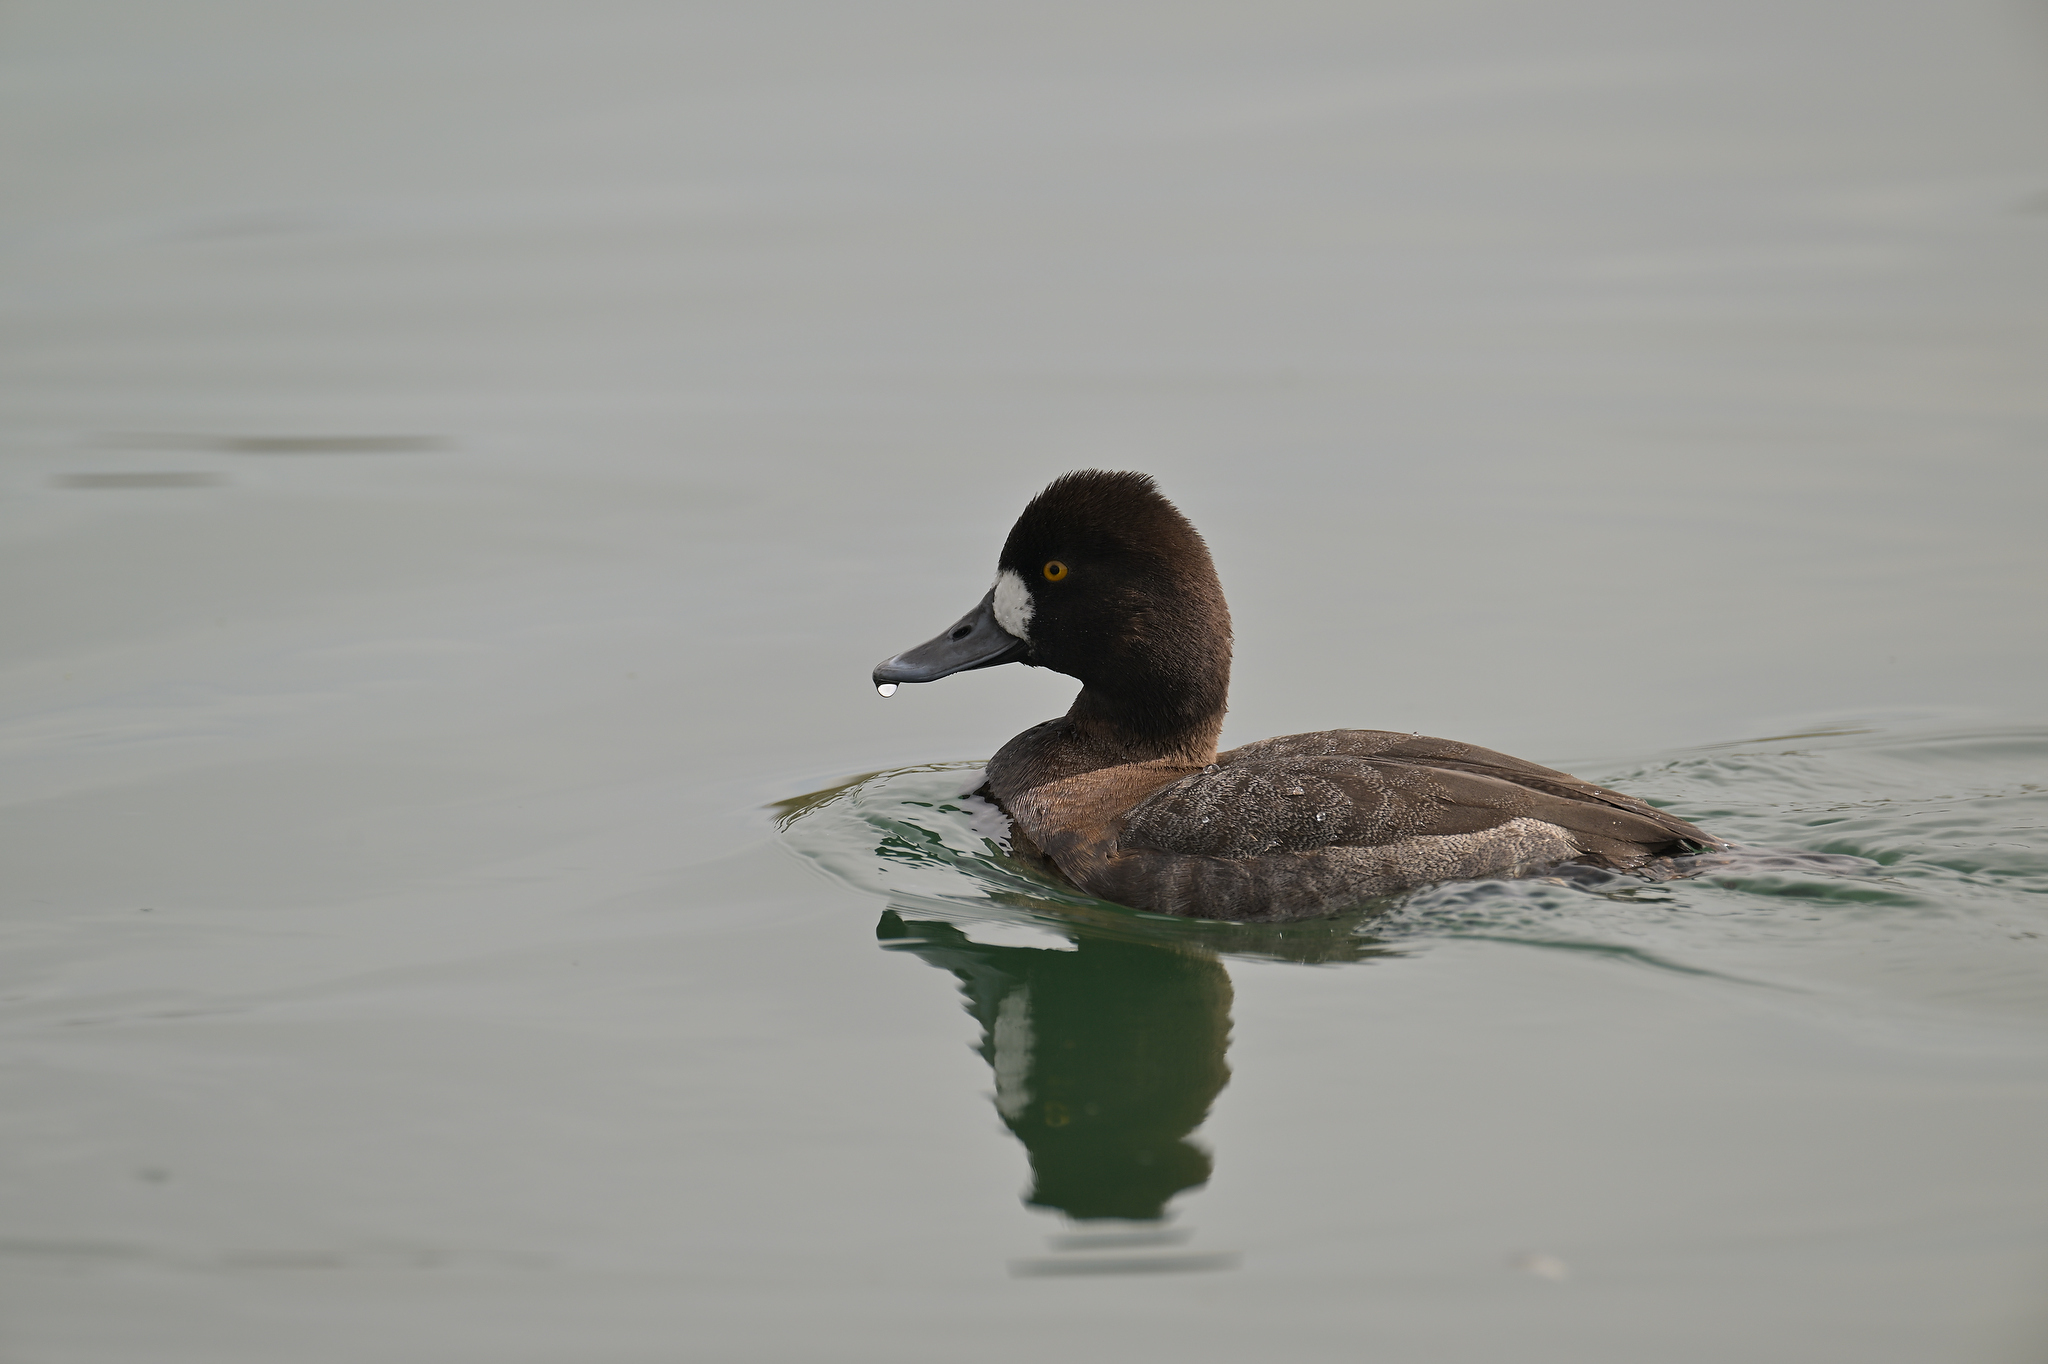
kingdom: Animalia
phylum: Chordata
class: Aves
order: Anseriformes
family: Anatidae
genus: Aythya
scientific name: Aythya affinis
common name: Lesser scaup
